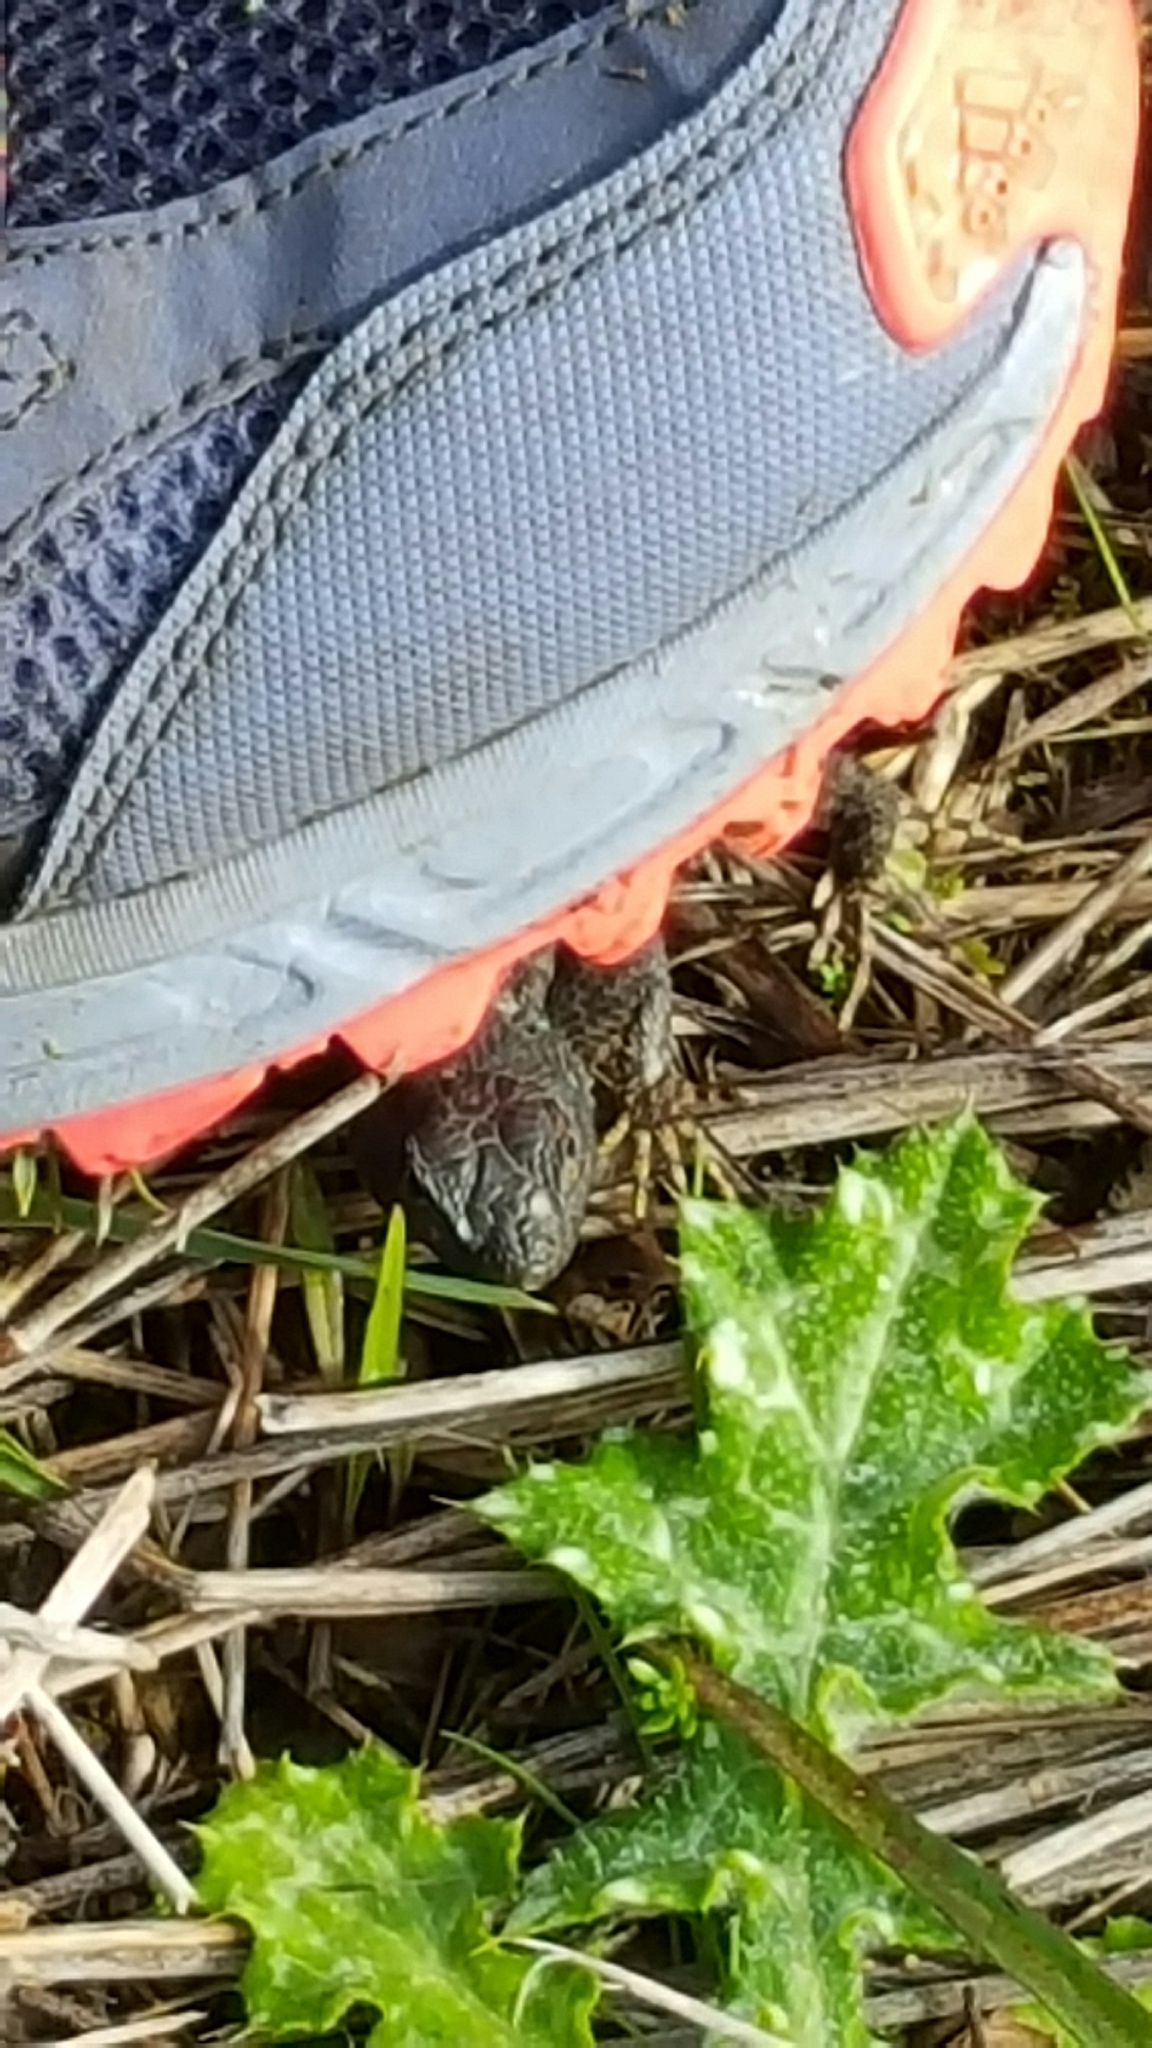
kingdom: Animalia
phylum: Chordata
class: Squamata
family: Phrynosomatidae
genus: Sceloporus
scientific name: Sceloporus occidentalis
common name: Western fence lizard
